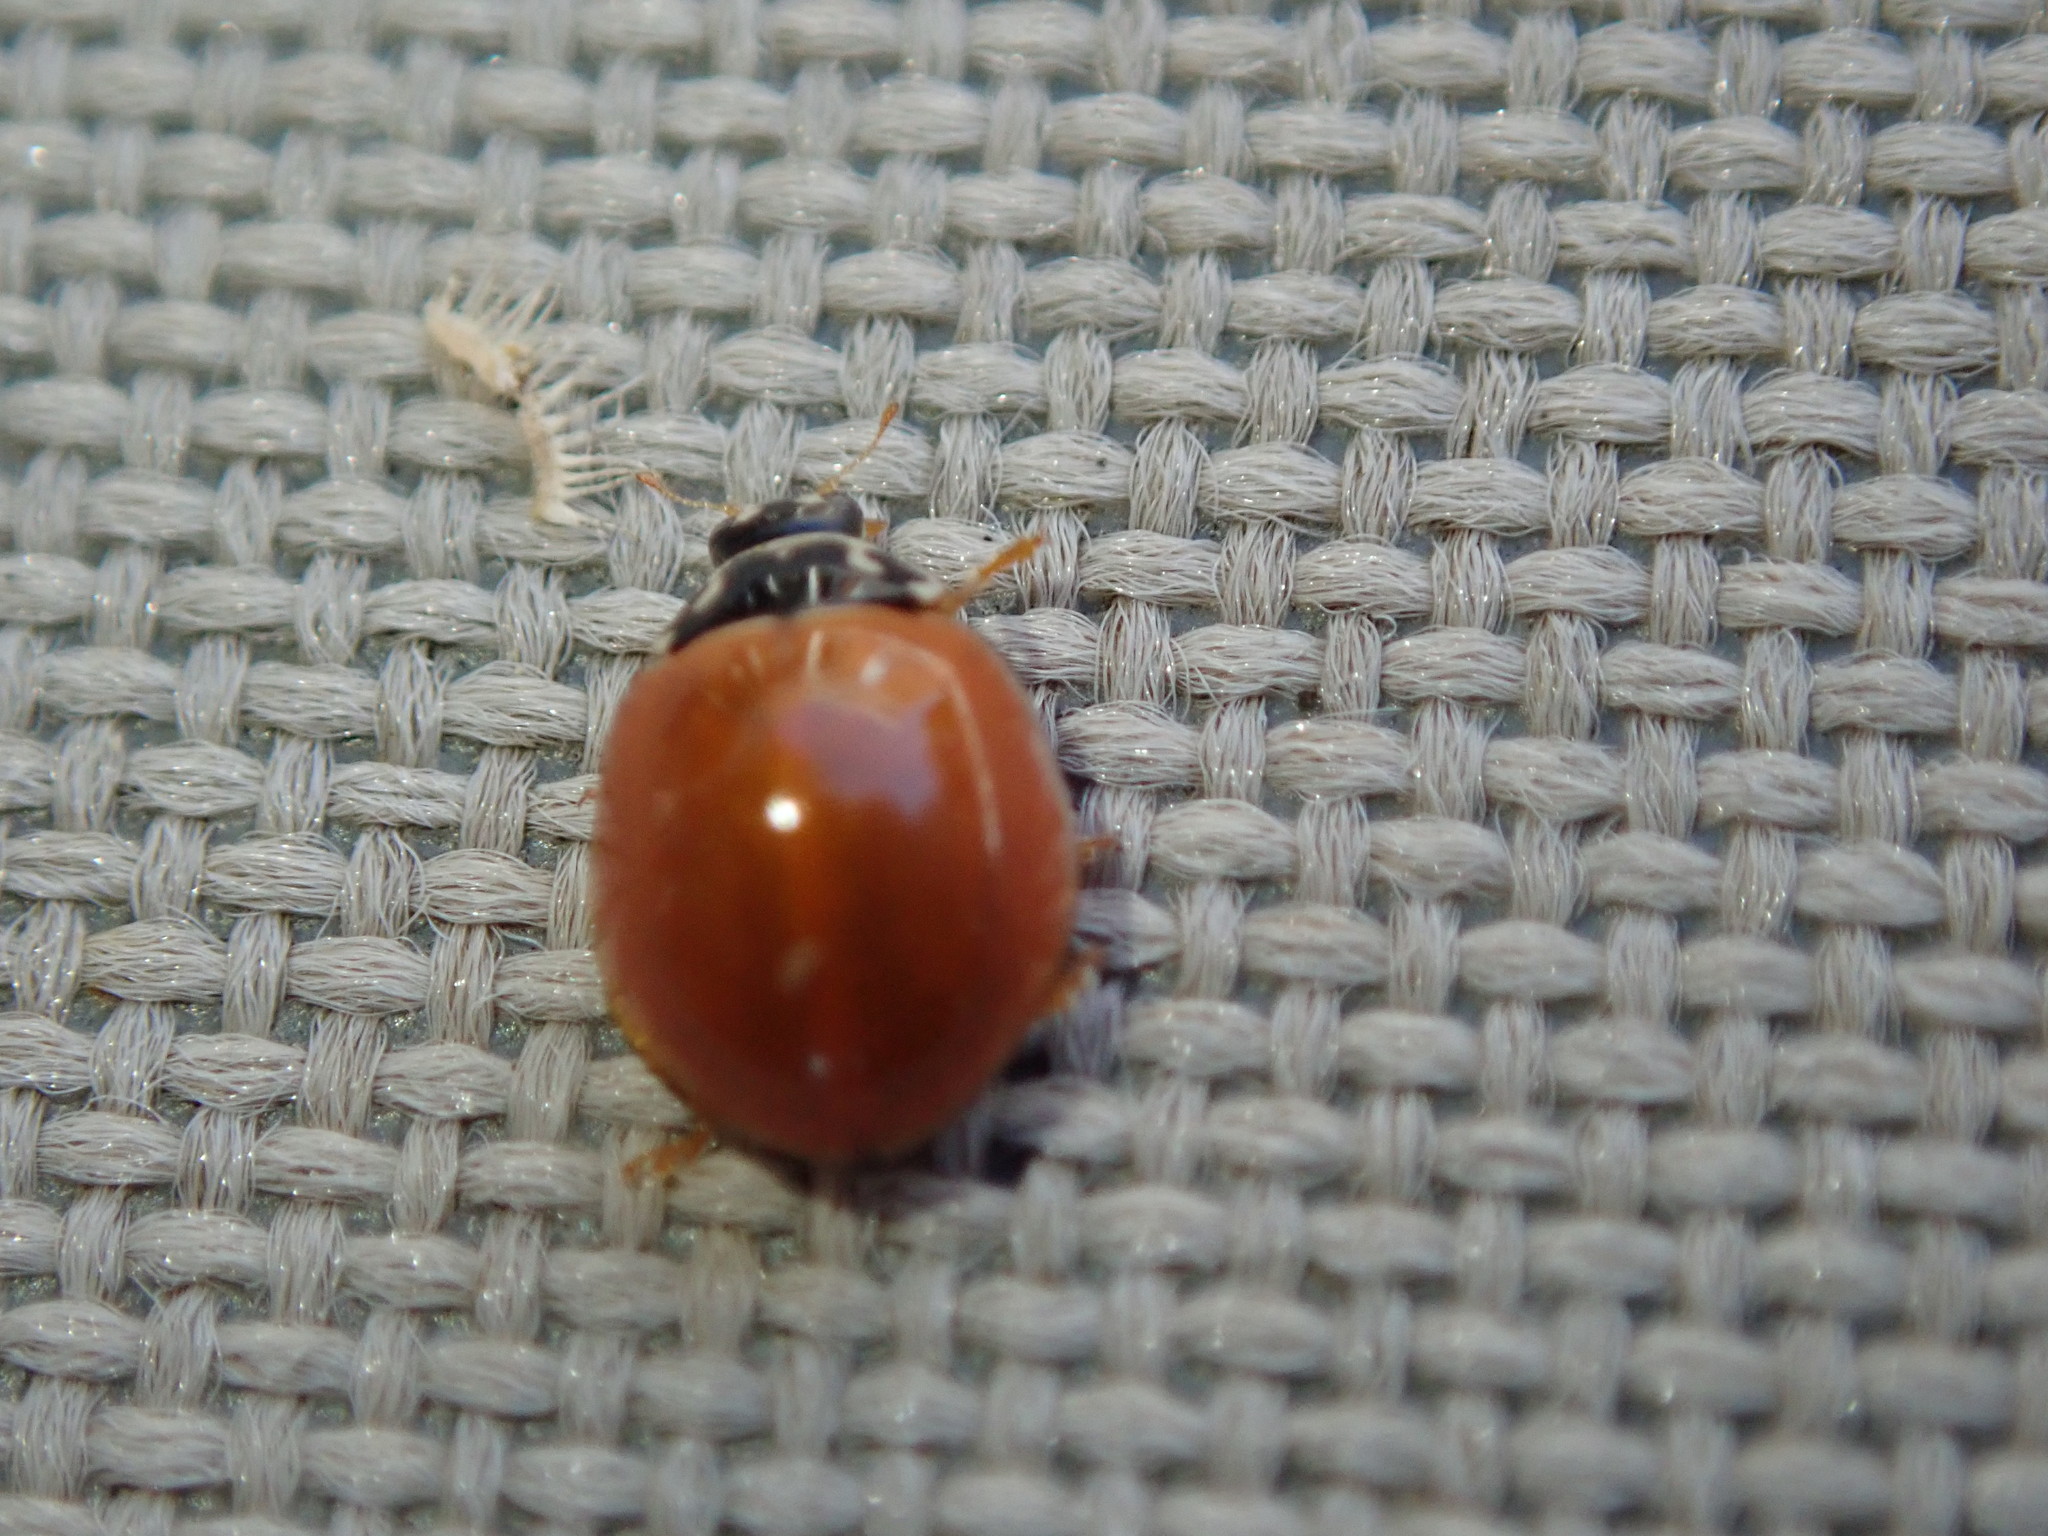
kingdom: Animalia
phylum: Arthropoda
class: Insecta
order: Coleoptera
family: Coccinellidae
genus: Cycloneda
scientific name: Cycloneda munda
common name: Polished lady beetle
